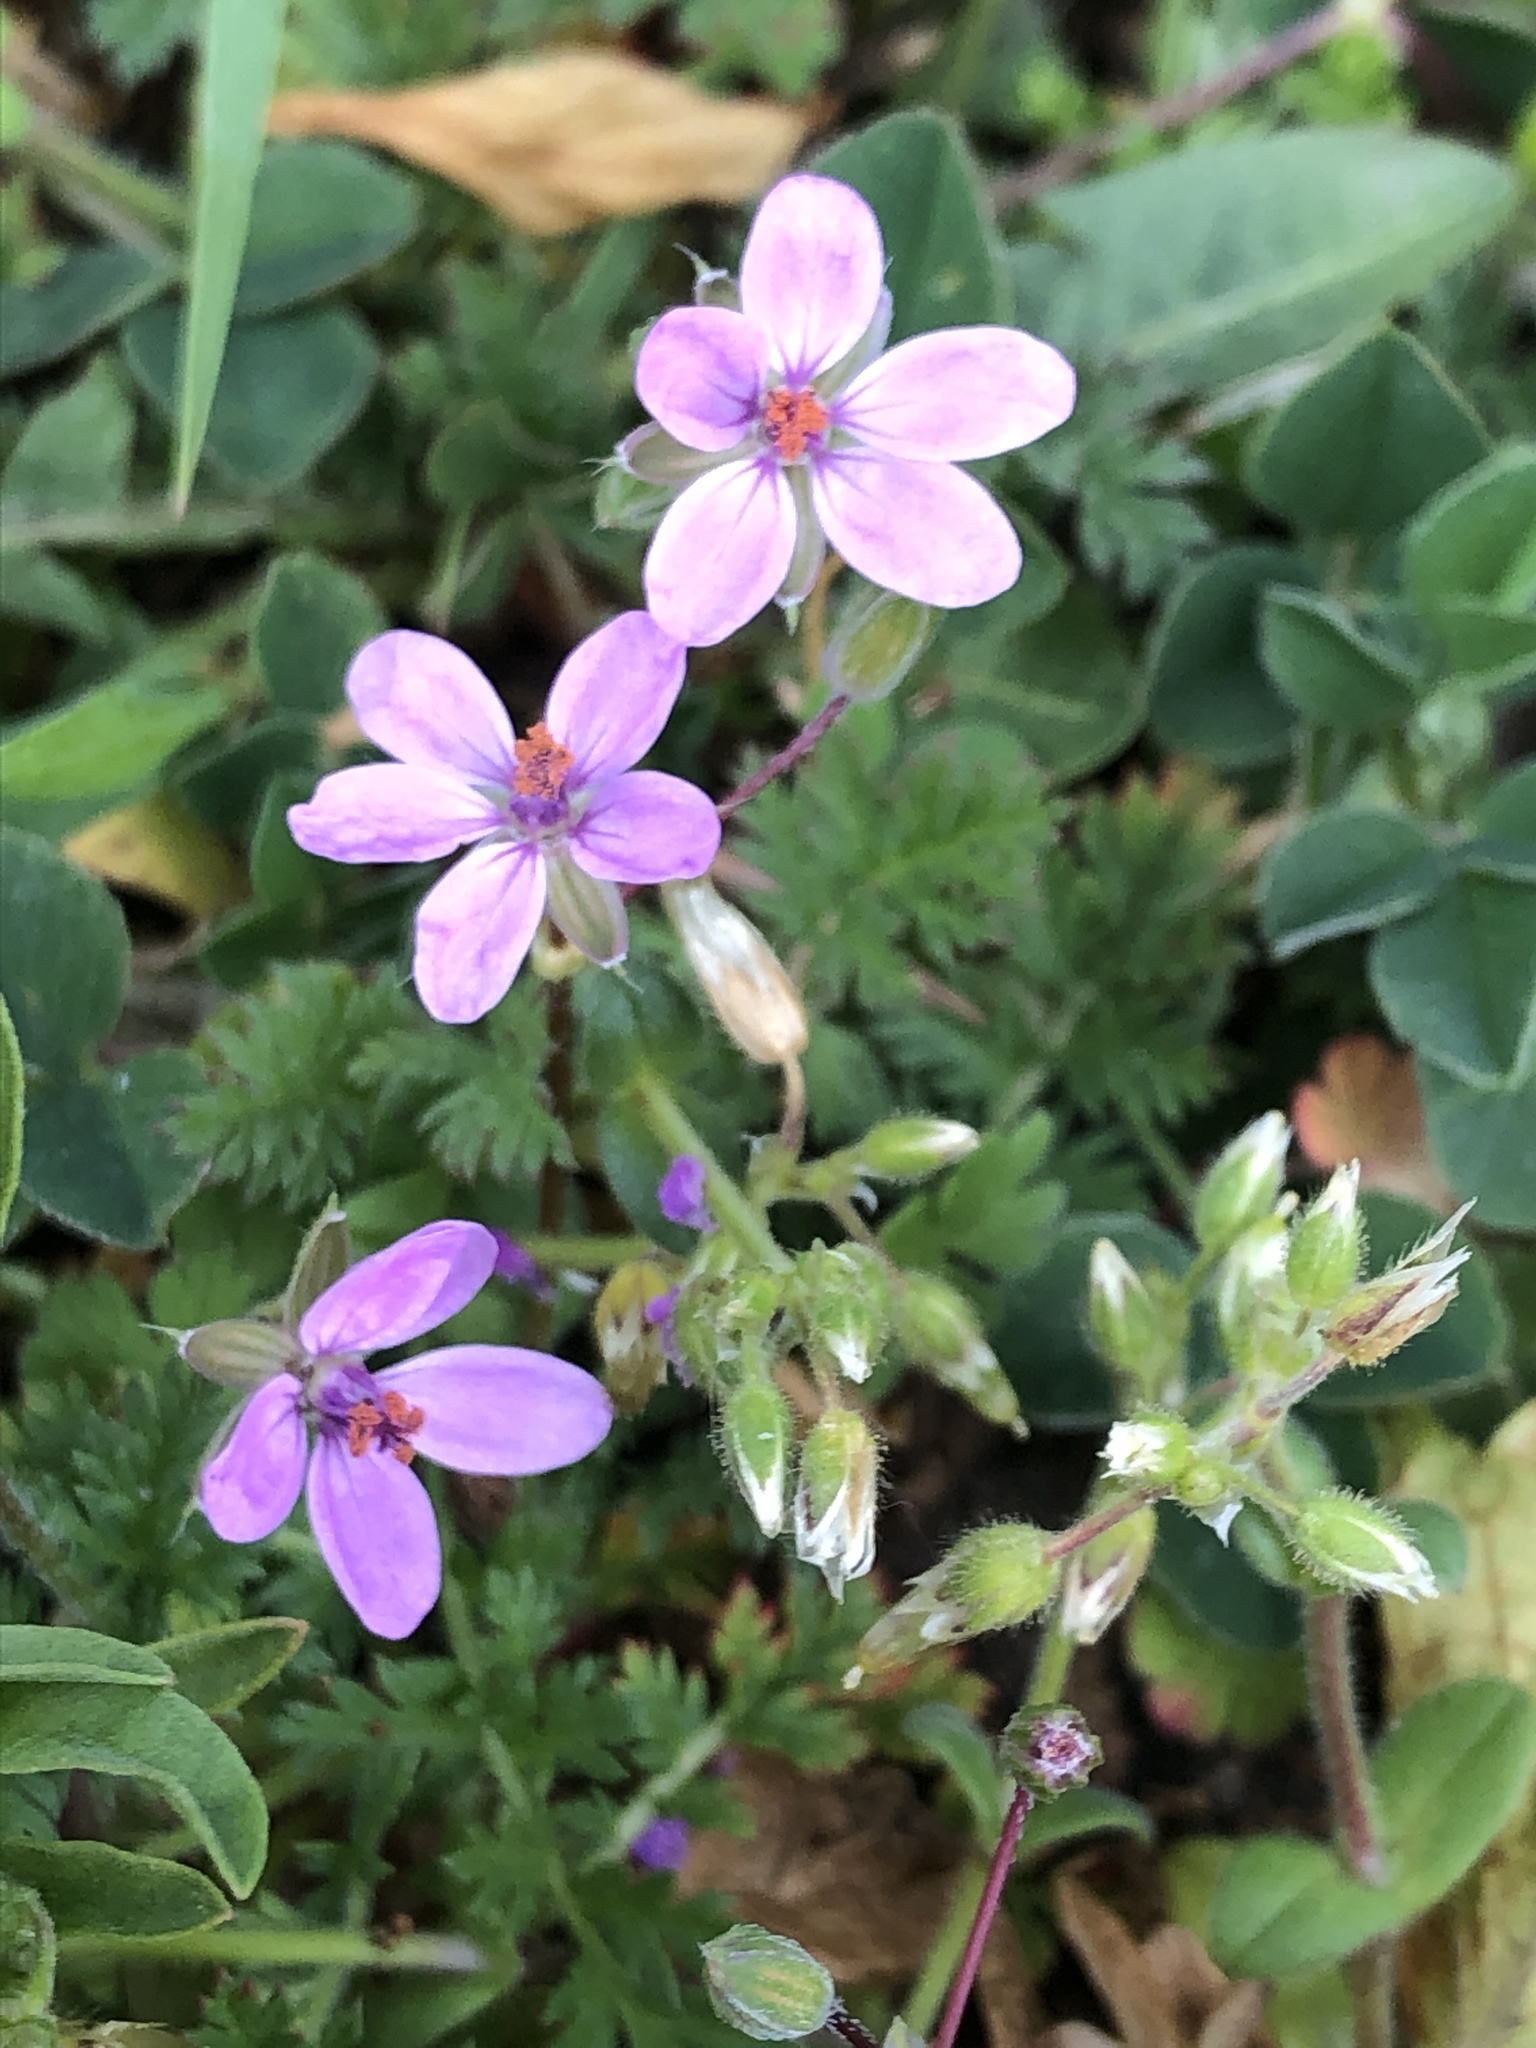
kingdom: Plantae
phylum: Tracheophyta
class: Magnoliopsida
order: Geraniales
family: Geraniaceae
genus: Erodium
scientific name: Erodium cicutarium
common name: Common stork's-bill
